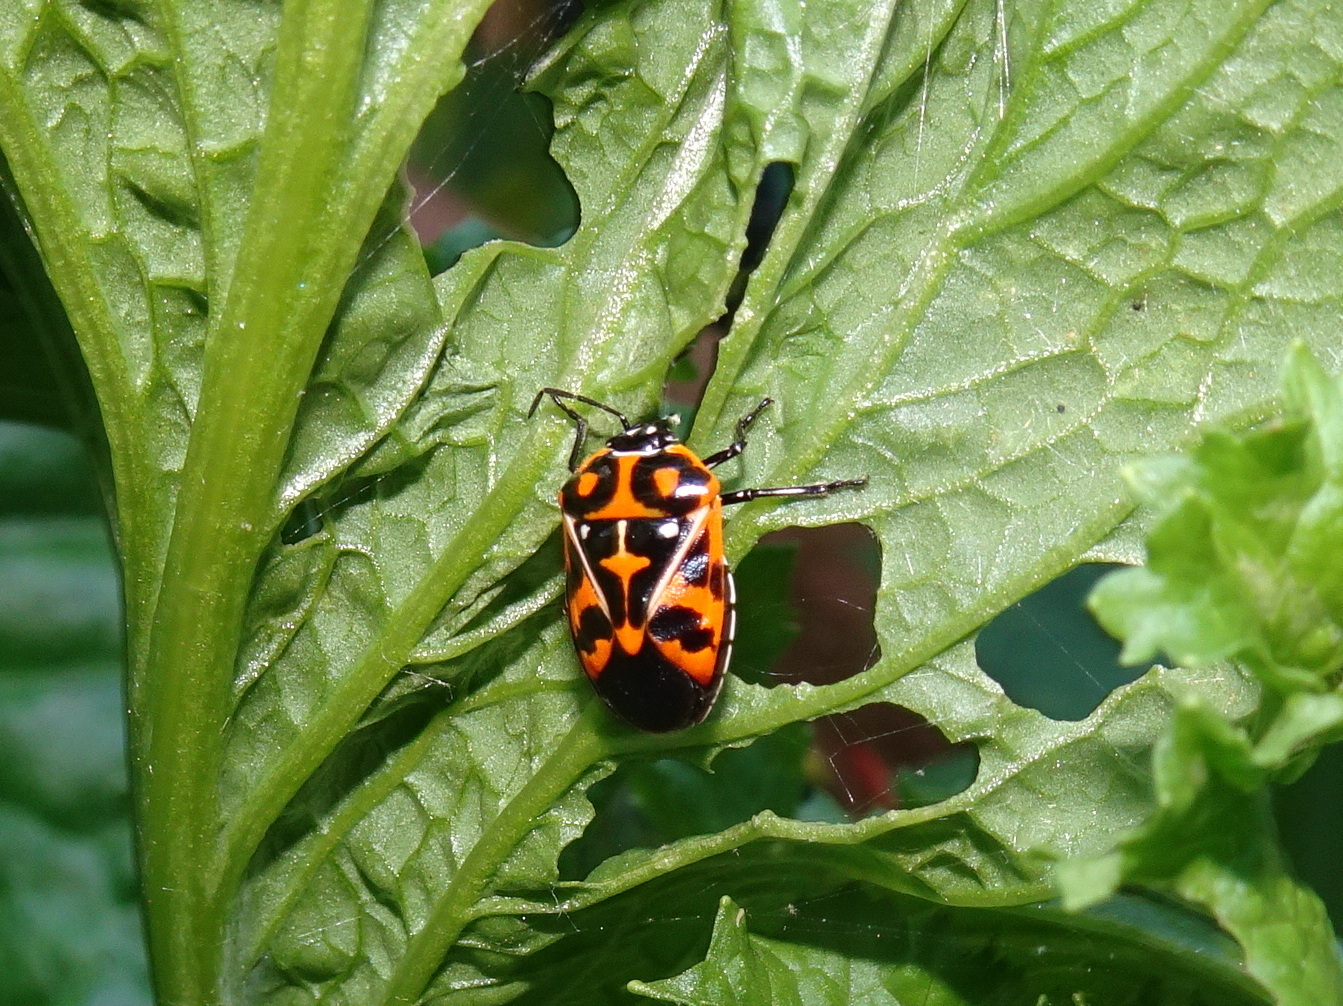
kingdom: Animalia
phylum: Arthropoda
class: Insecta
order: Hemiptera
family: Pentatomidae
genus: Murgantia
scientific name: Murgantia histrionica
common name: Harlequin bug
